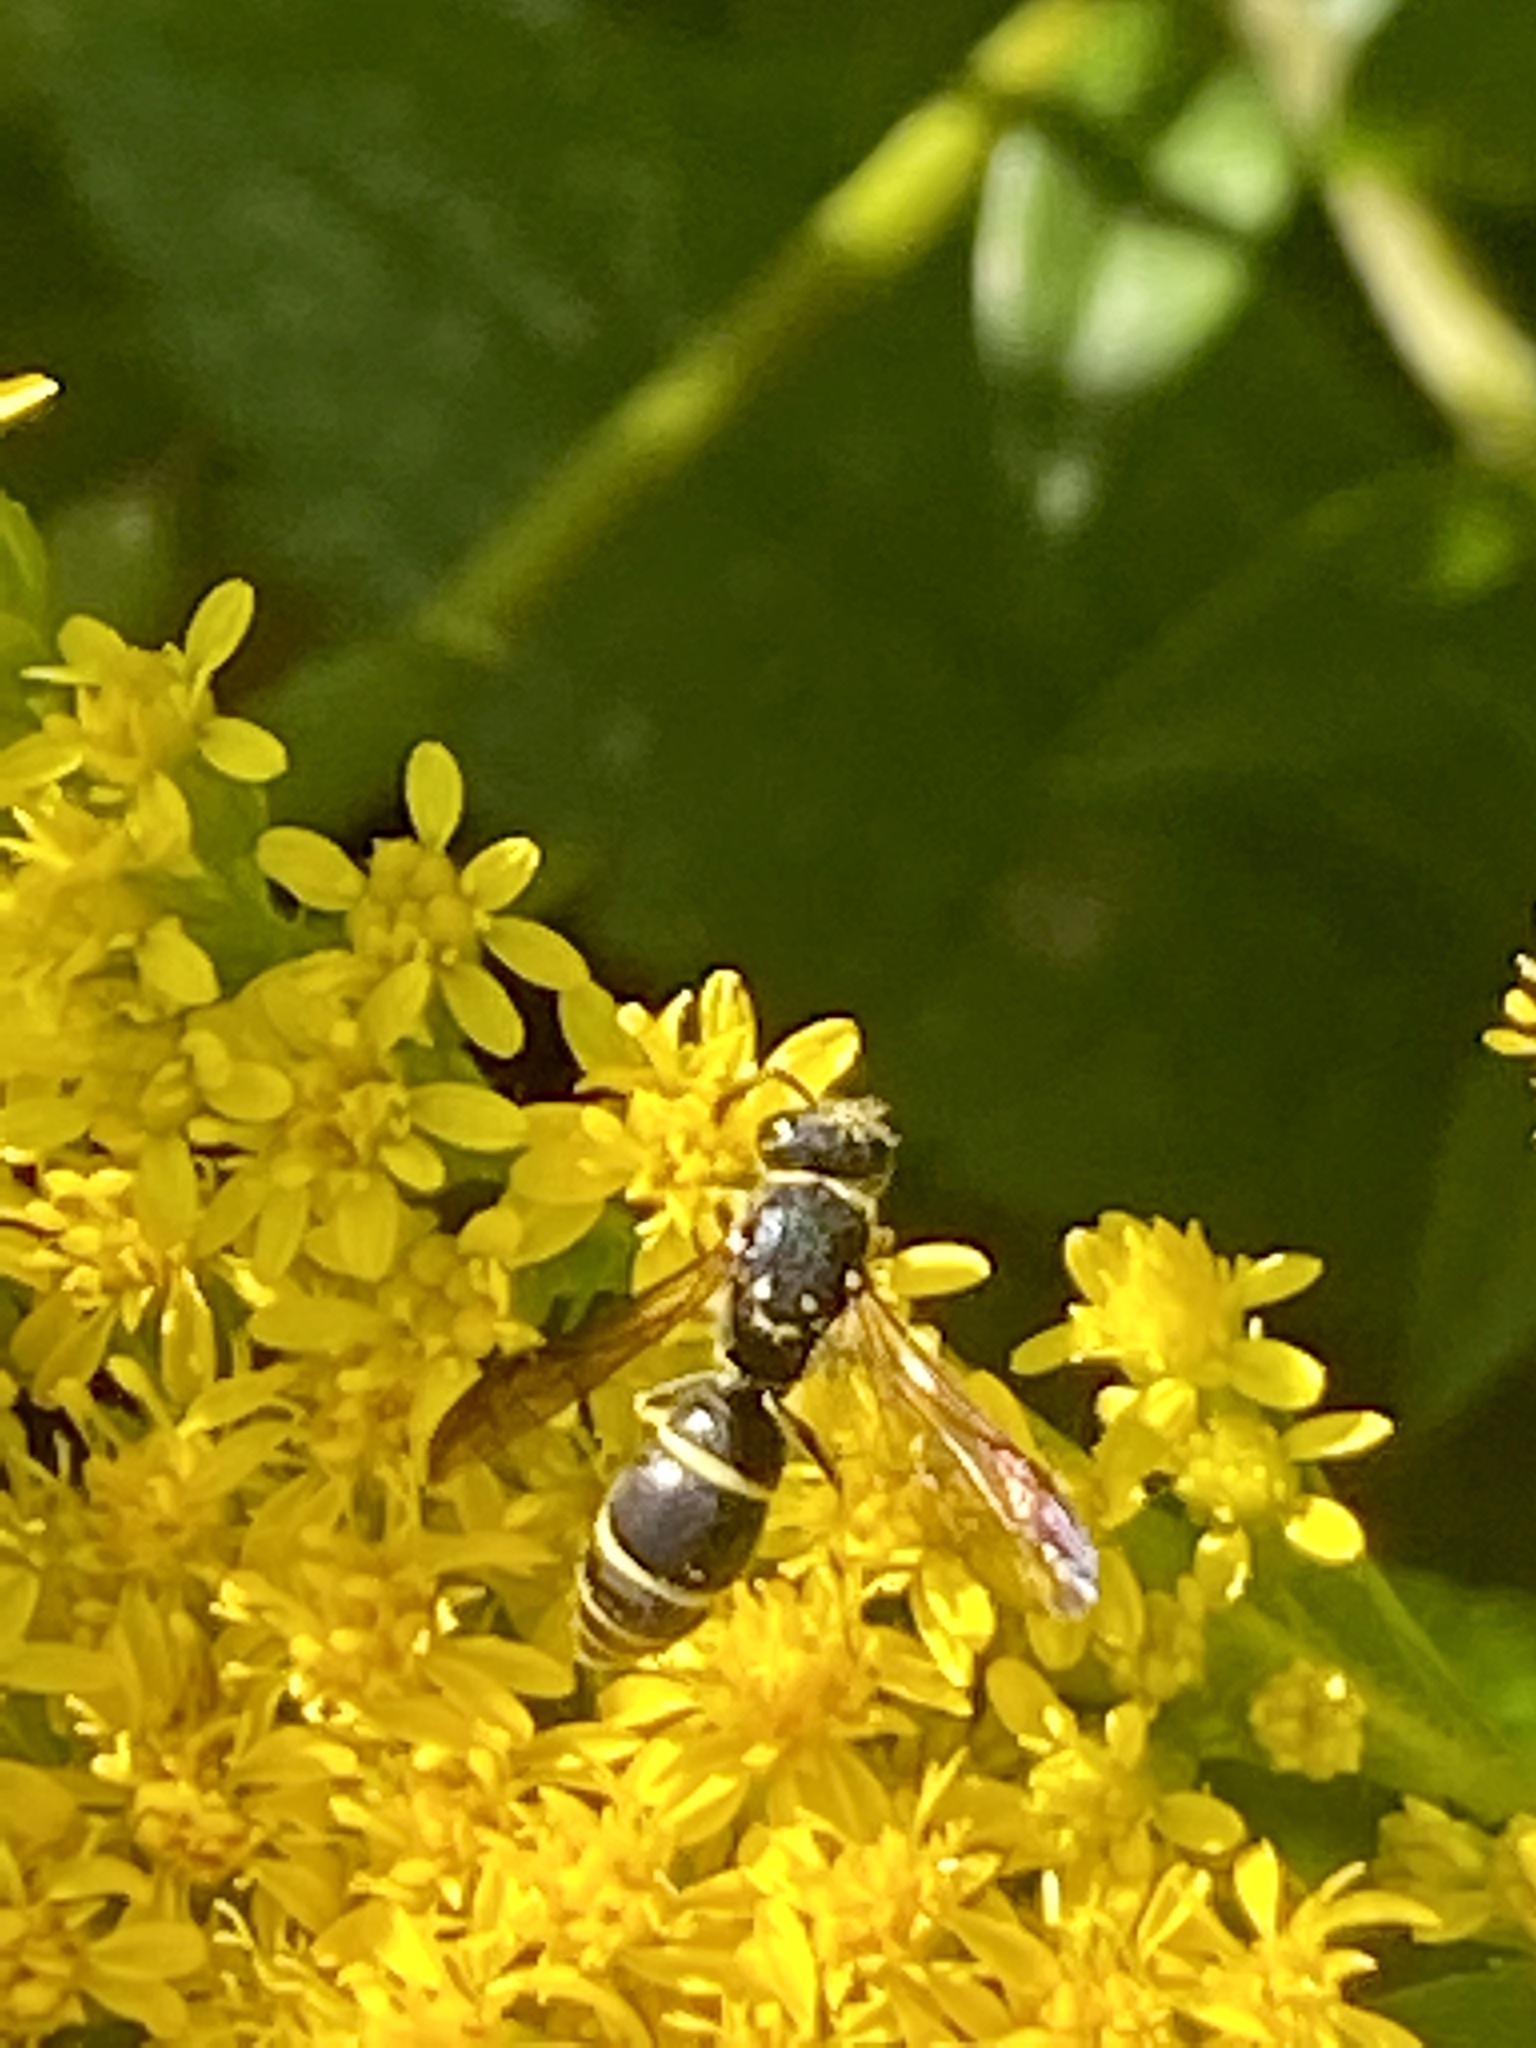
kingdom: Animalia
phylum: Arthropoda
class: Insecta
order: Hymenoptera
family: Vespidae
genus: Ancistrocerus
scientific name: Ancistrocerus adiabatus
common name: Bramble mason wasp
